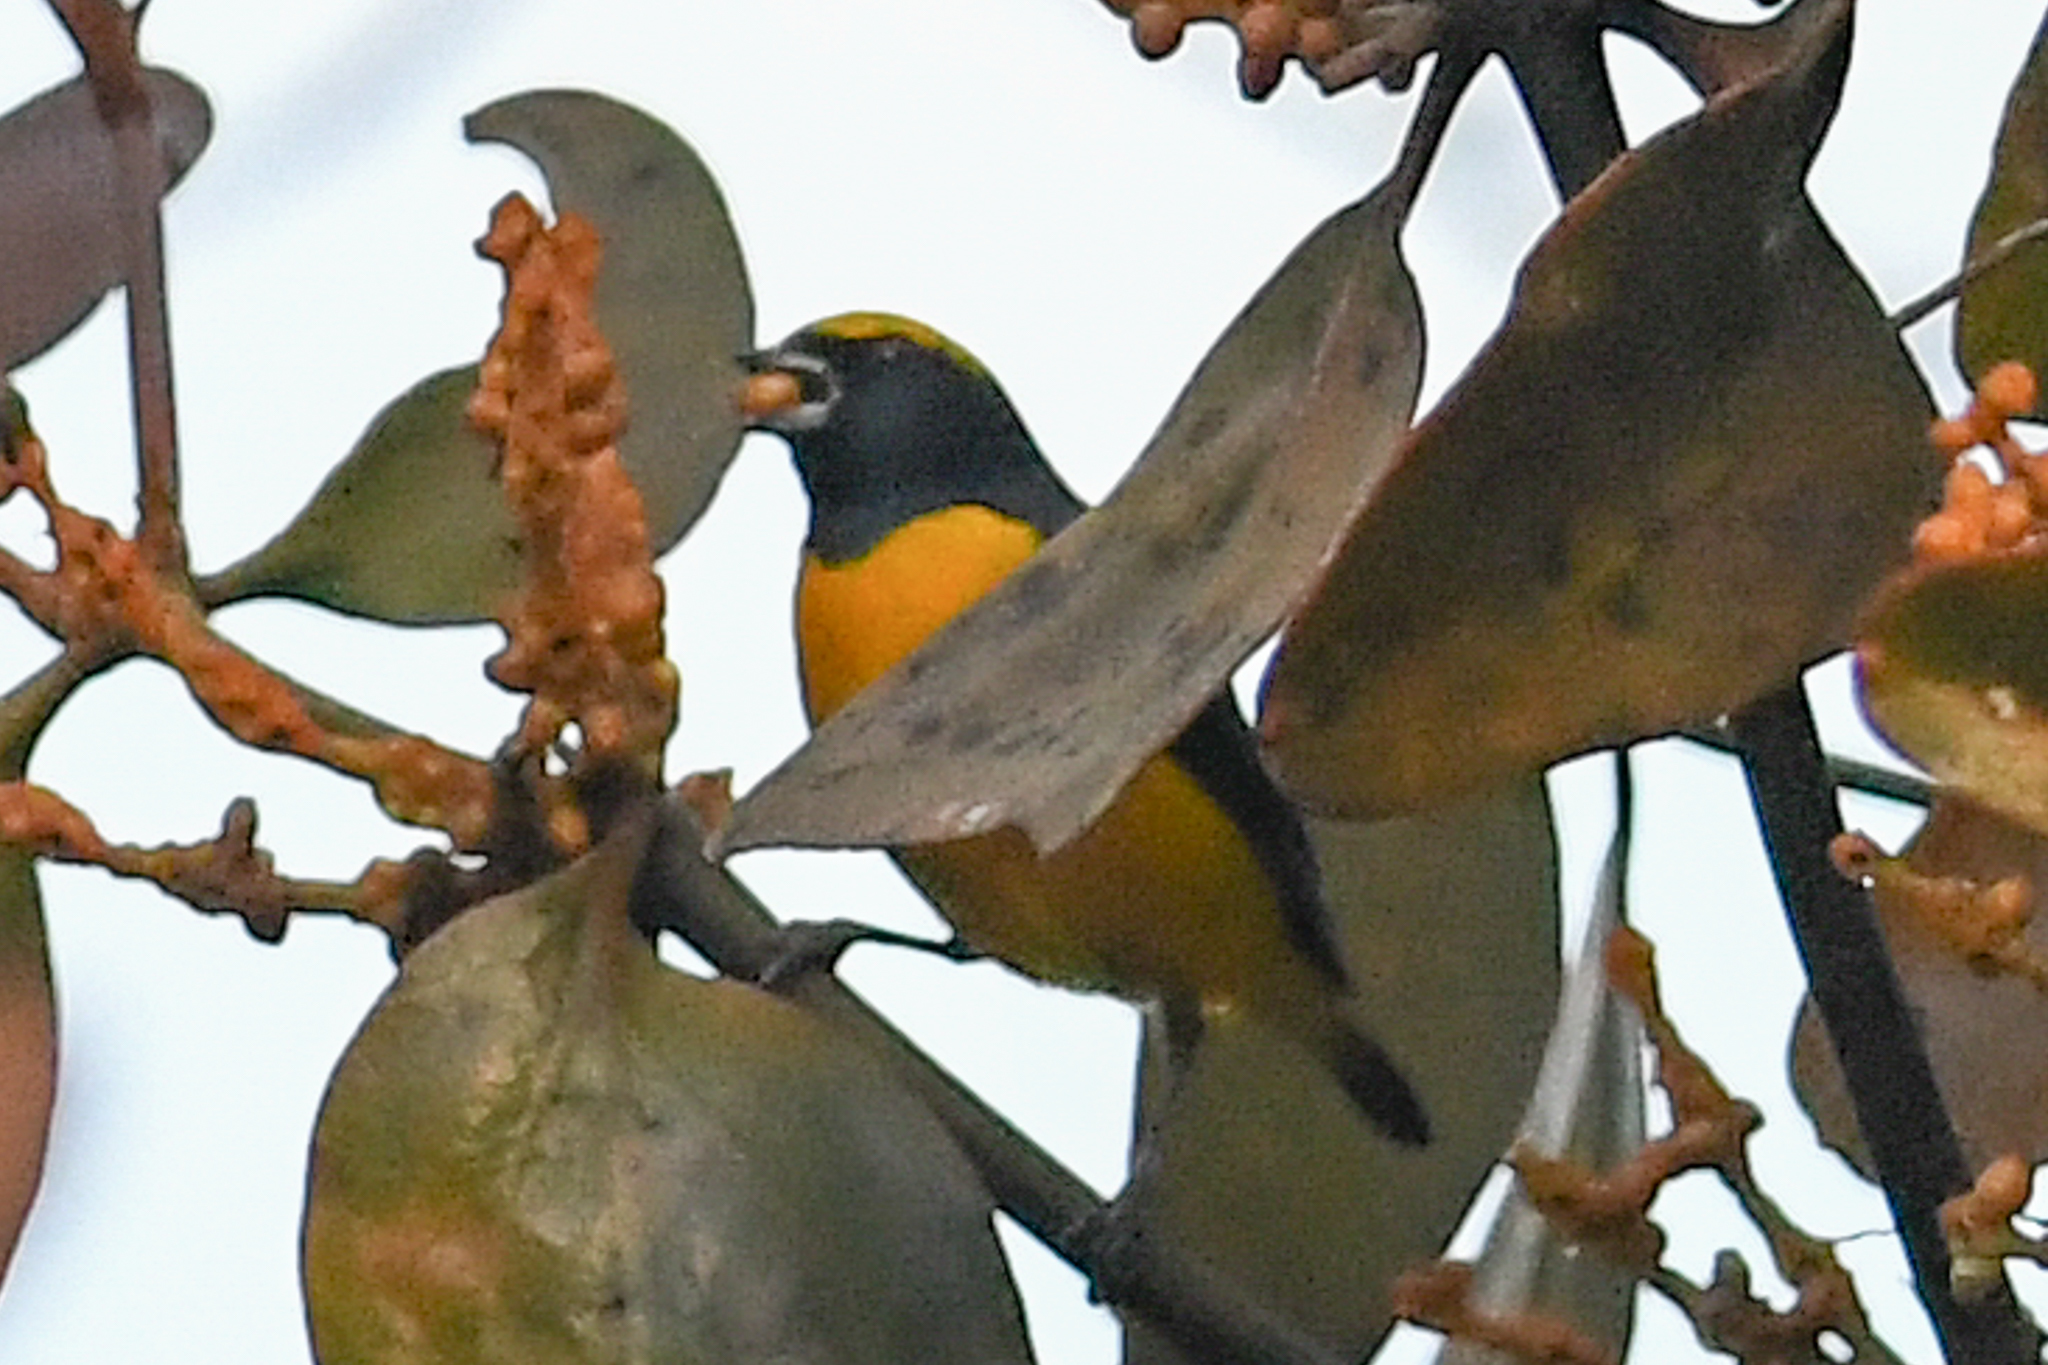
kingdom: Animalia
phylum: Chordata
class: Aves
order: Passeriformes
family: Fringillidae
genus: Euphonia
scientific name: Euphonia luteicapilla
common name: Yellow-crowned euphonia
